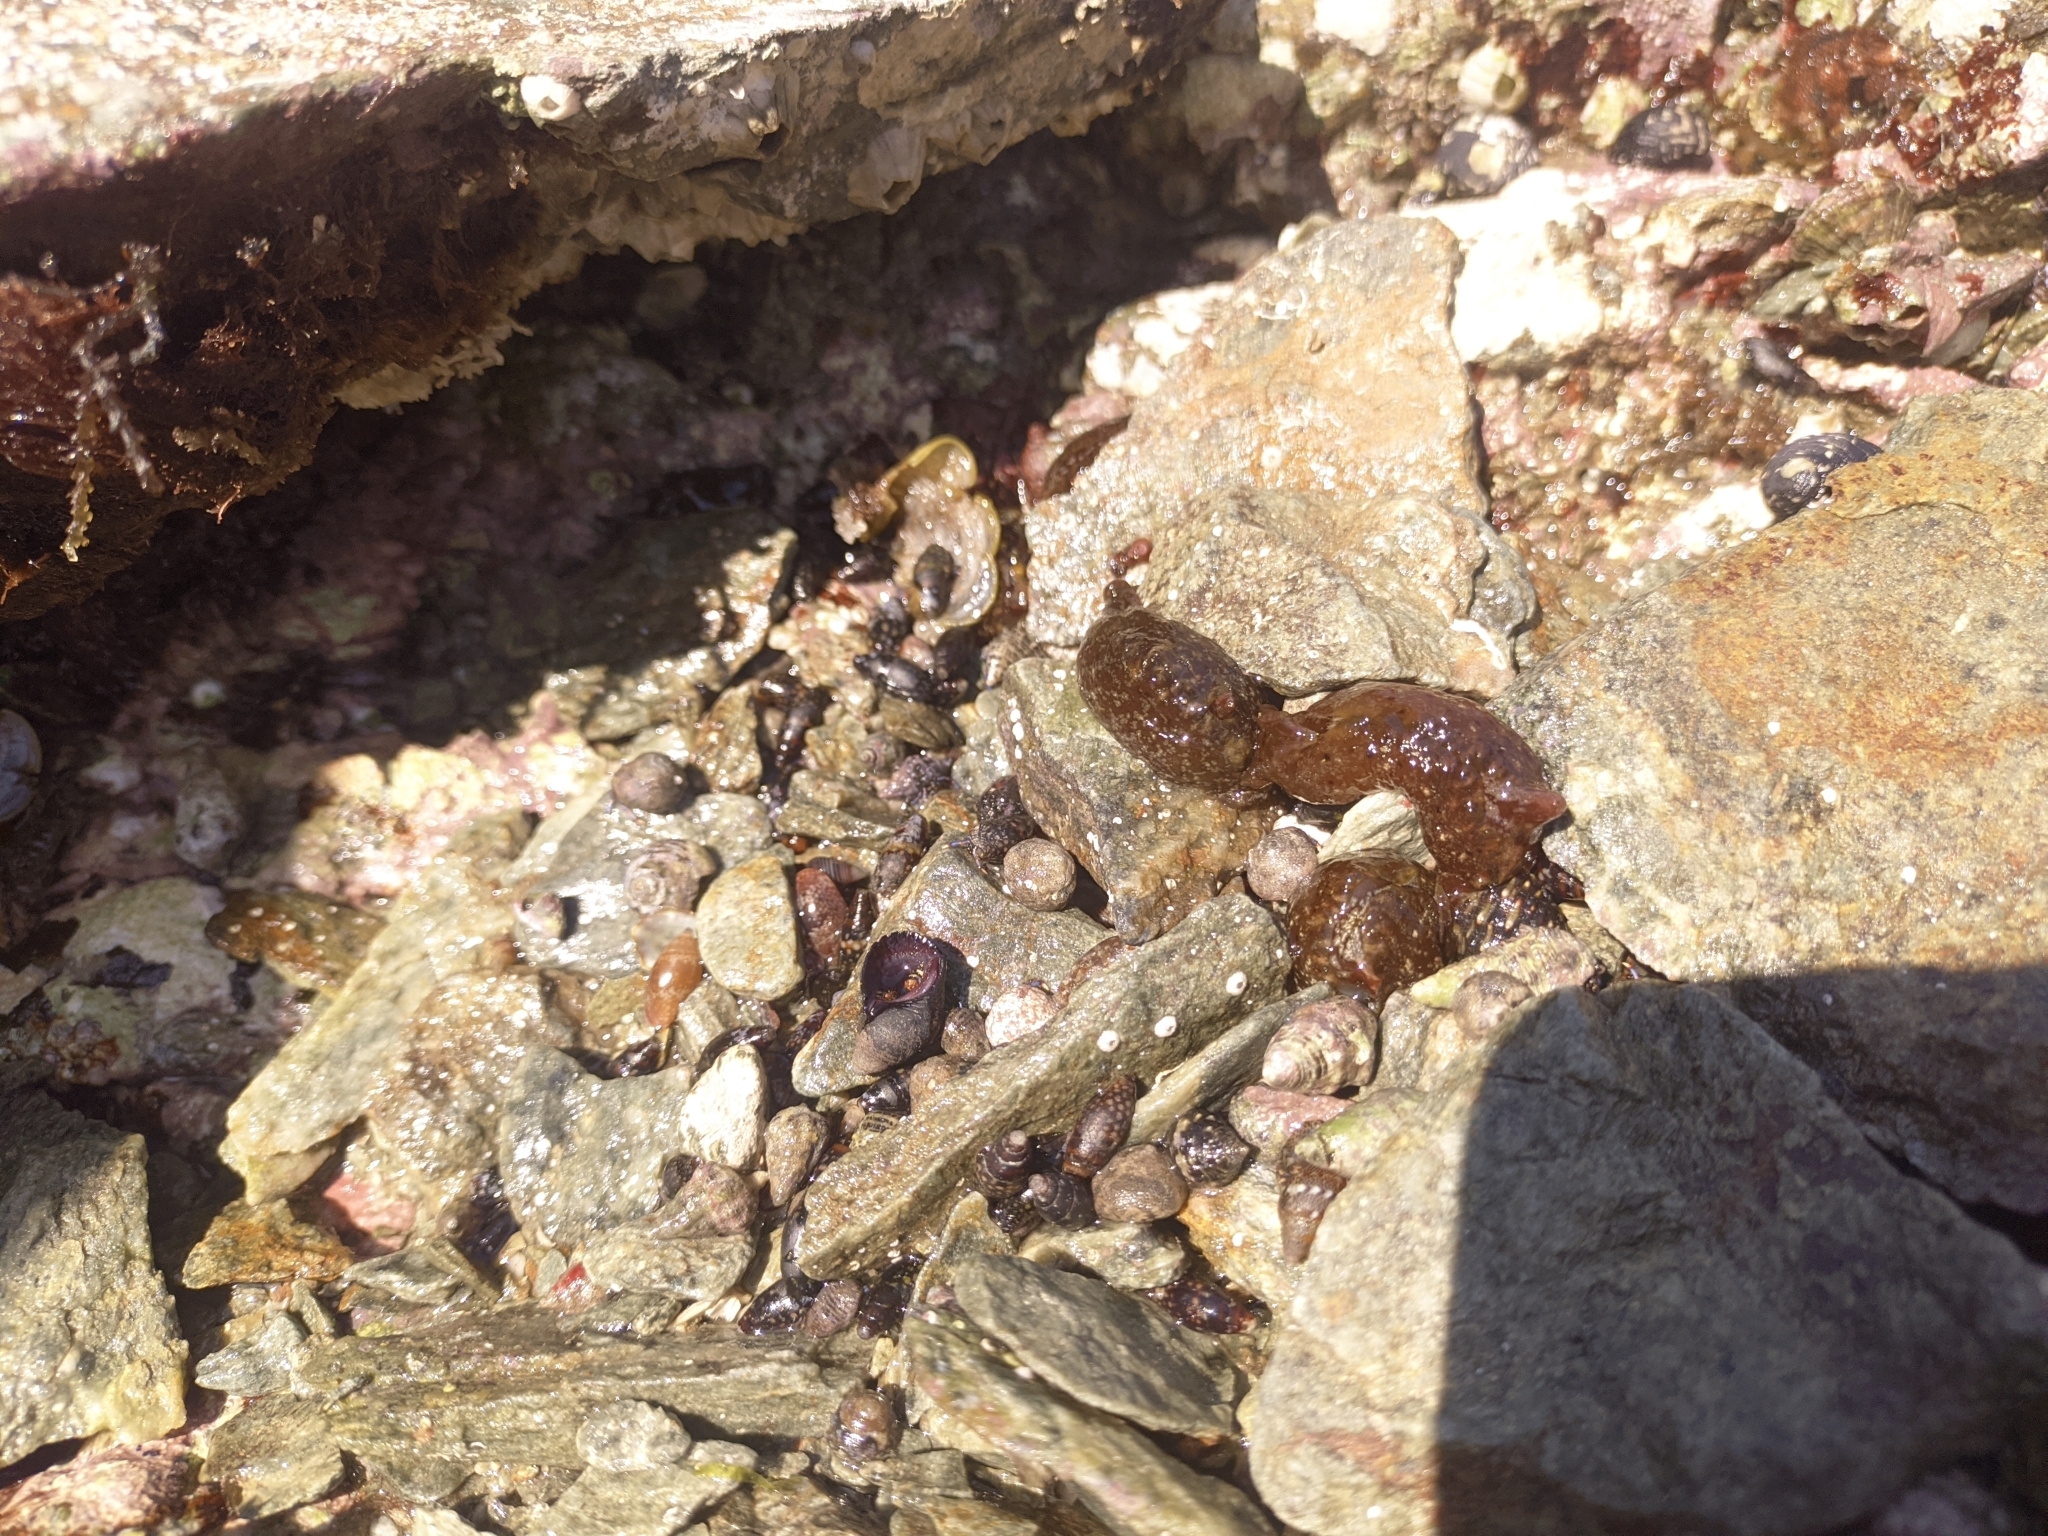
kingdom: Animalia
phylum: Mollusca
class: Gastropoda
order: Aplysiida
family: Aplysiidae
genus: Aplysia
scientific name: Aplysia brasiliana
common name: Mottled seahare
